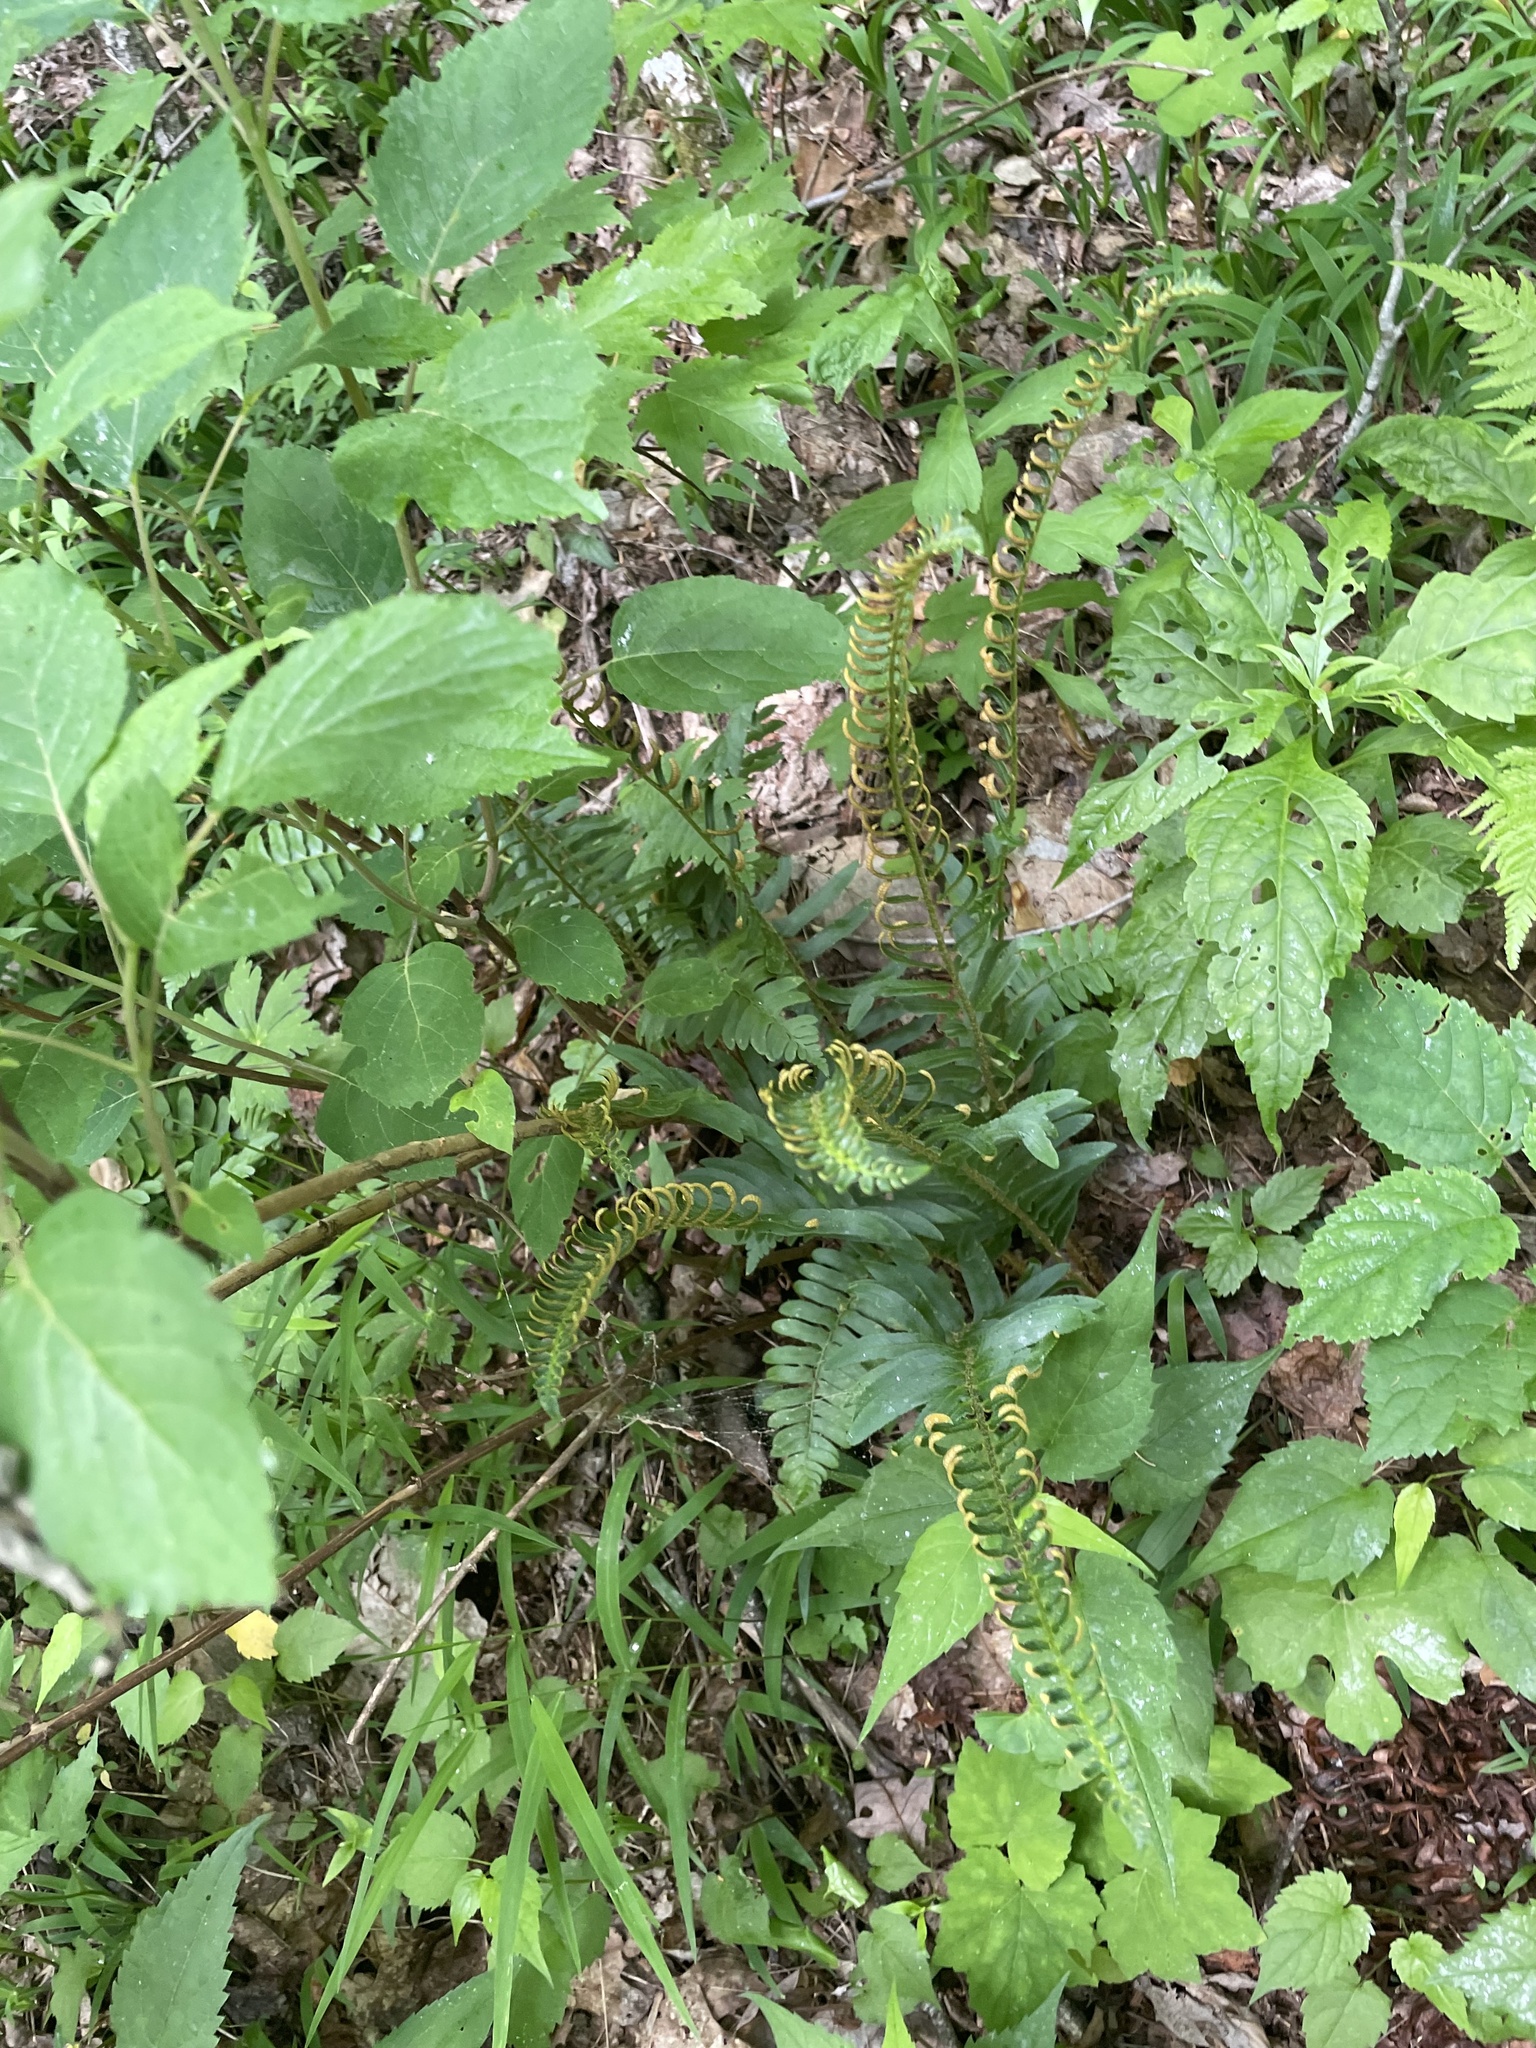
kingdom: Plantae
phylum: Tracheophyta
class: Polypodiopsida
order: Polypodiales
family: Dryopteridaceae
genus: Polystichum
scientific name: Polystichum acrostichoides
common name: Christmas fern
